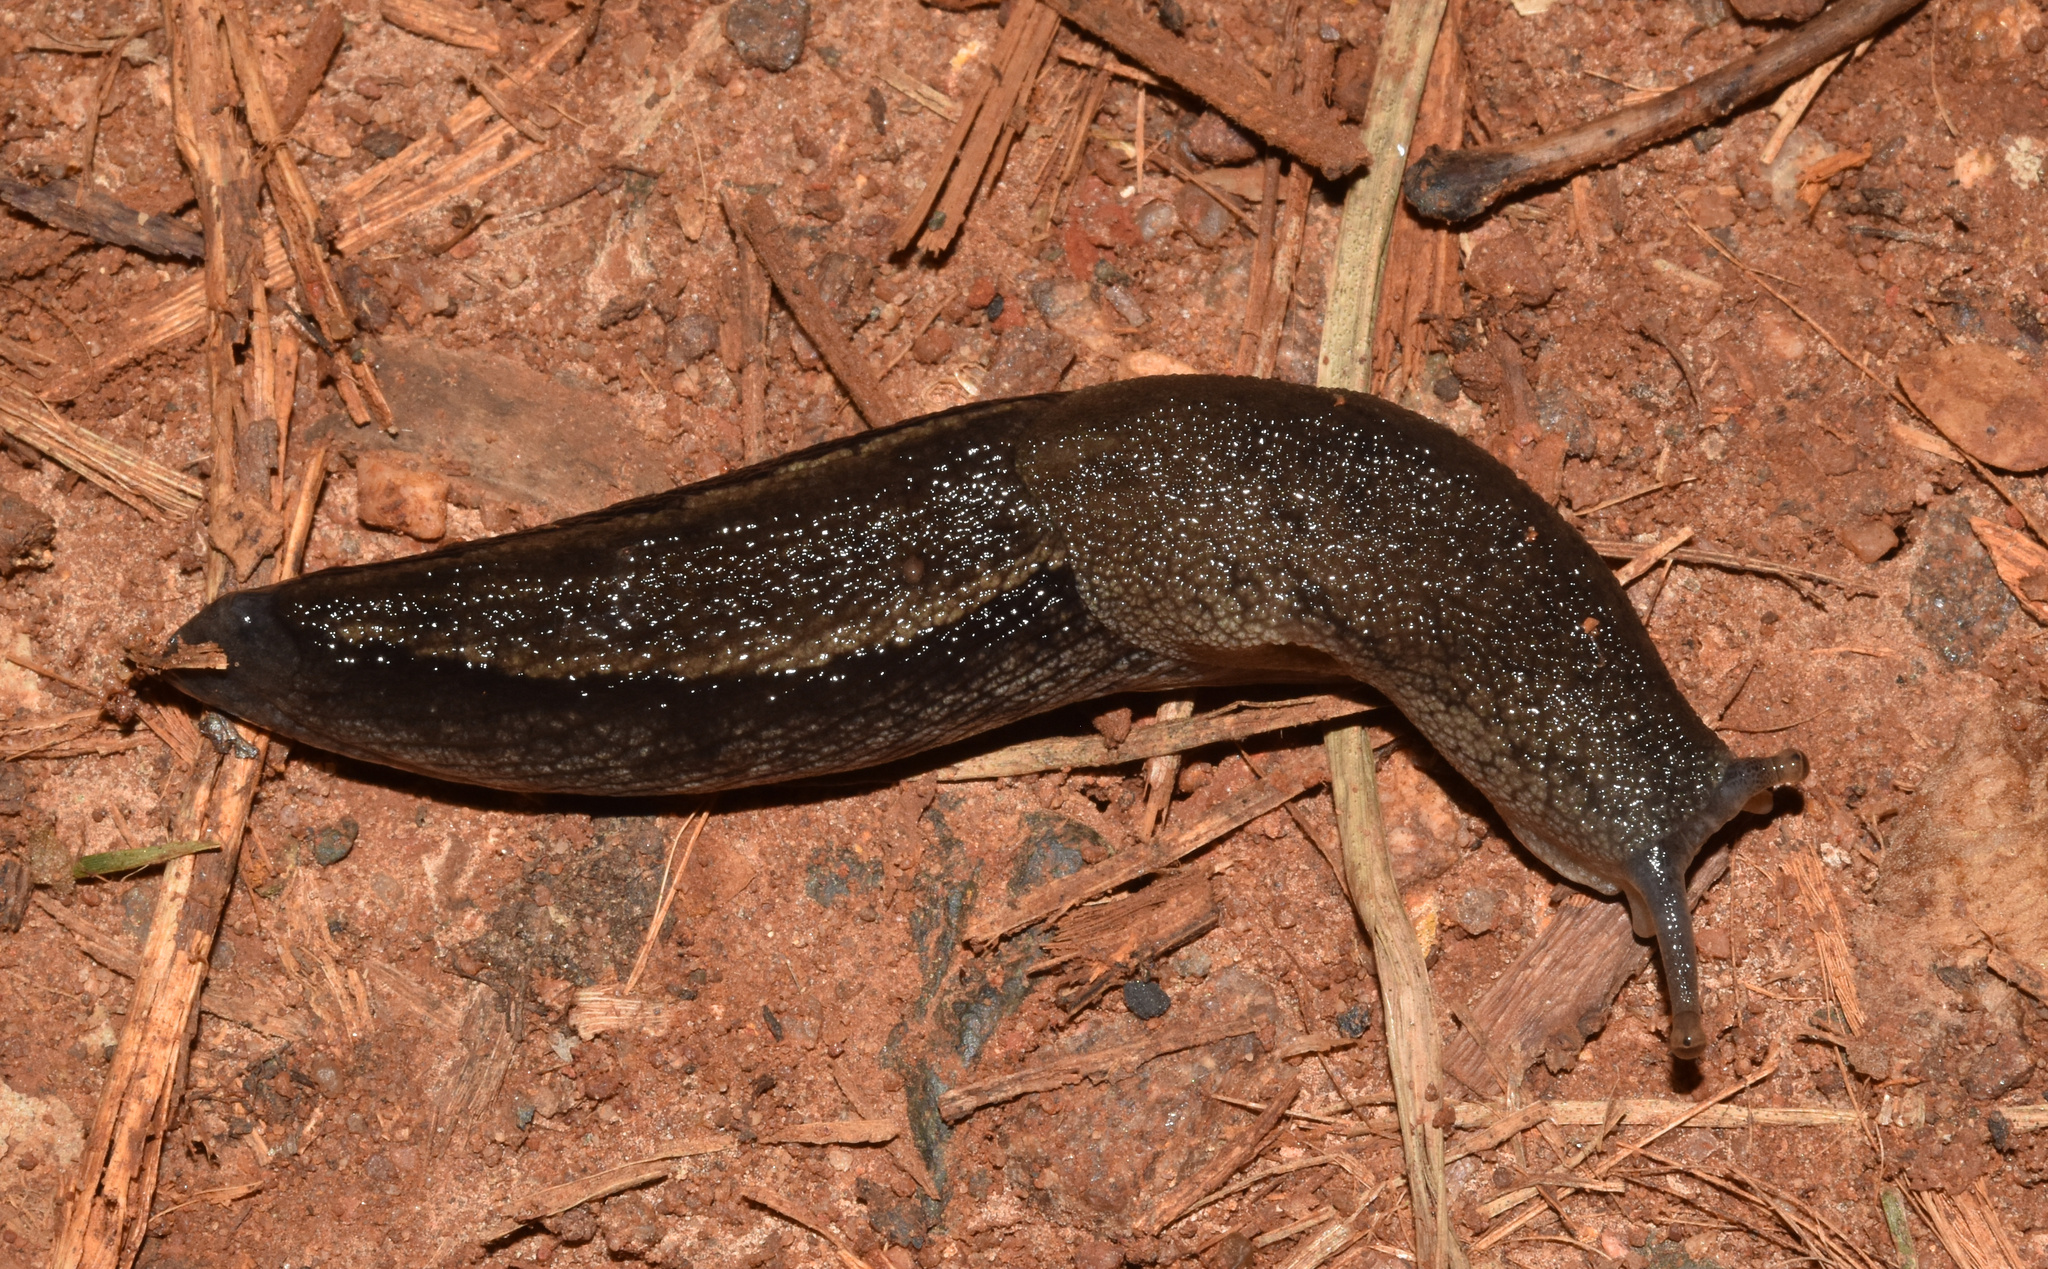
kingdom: Animalia
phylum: Mollusca
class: Gastropoda
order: Stylommatophora
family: Urocyclidae
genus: Urocyclus
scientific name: Urocyclus kirkii
